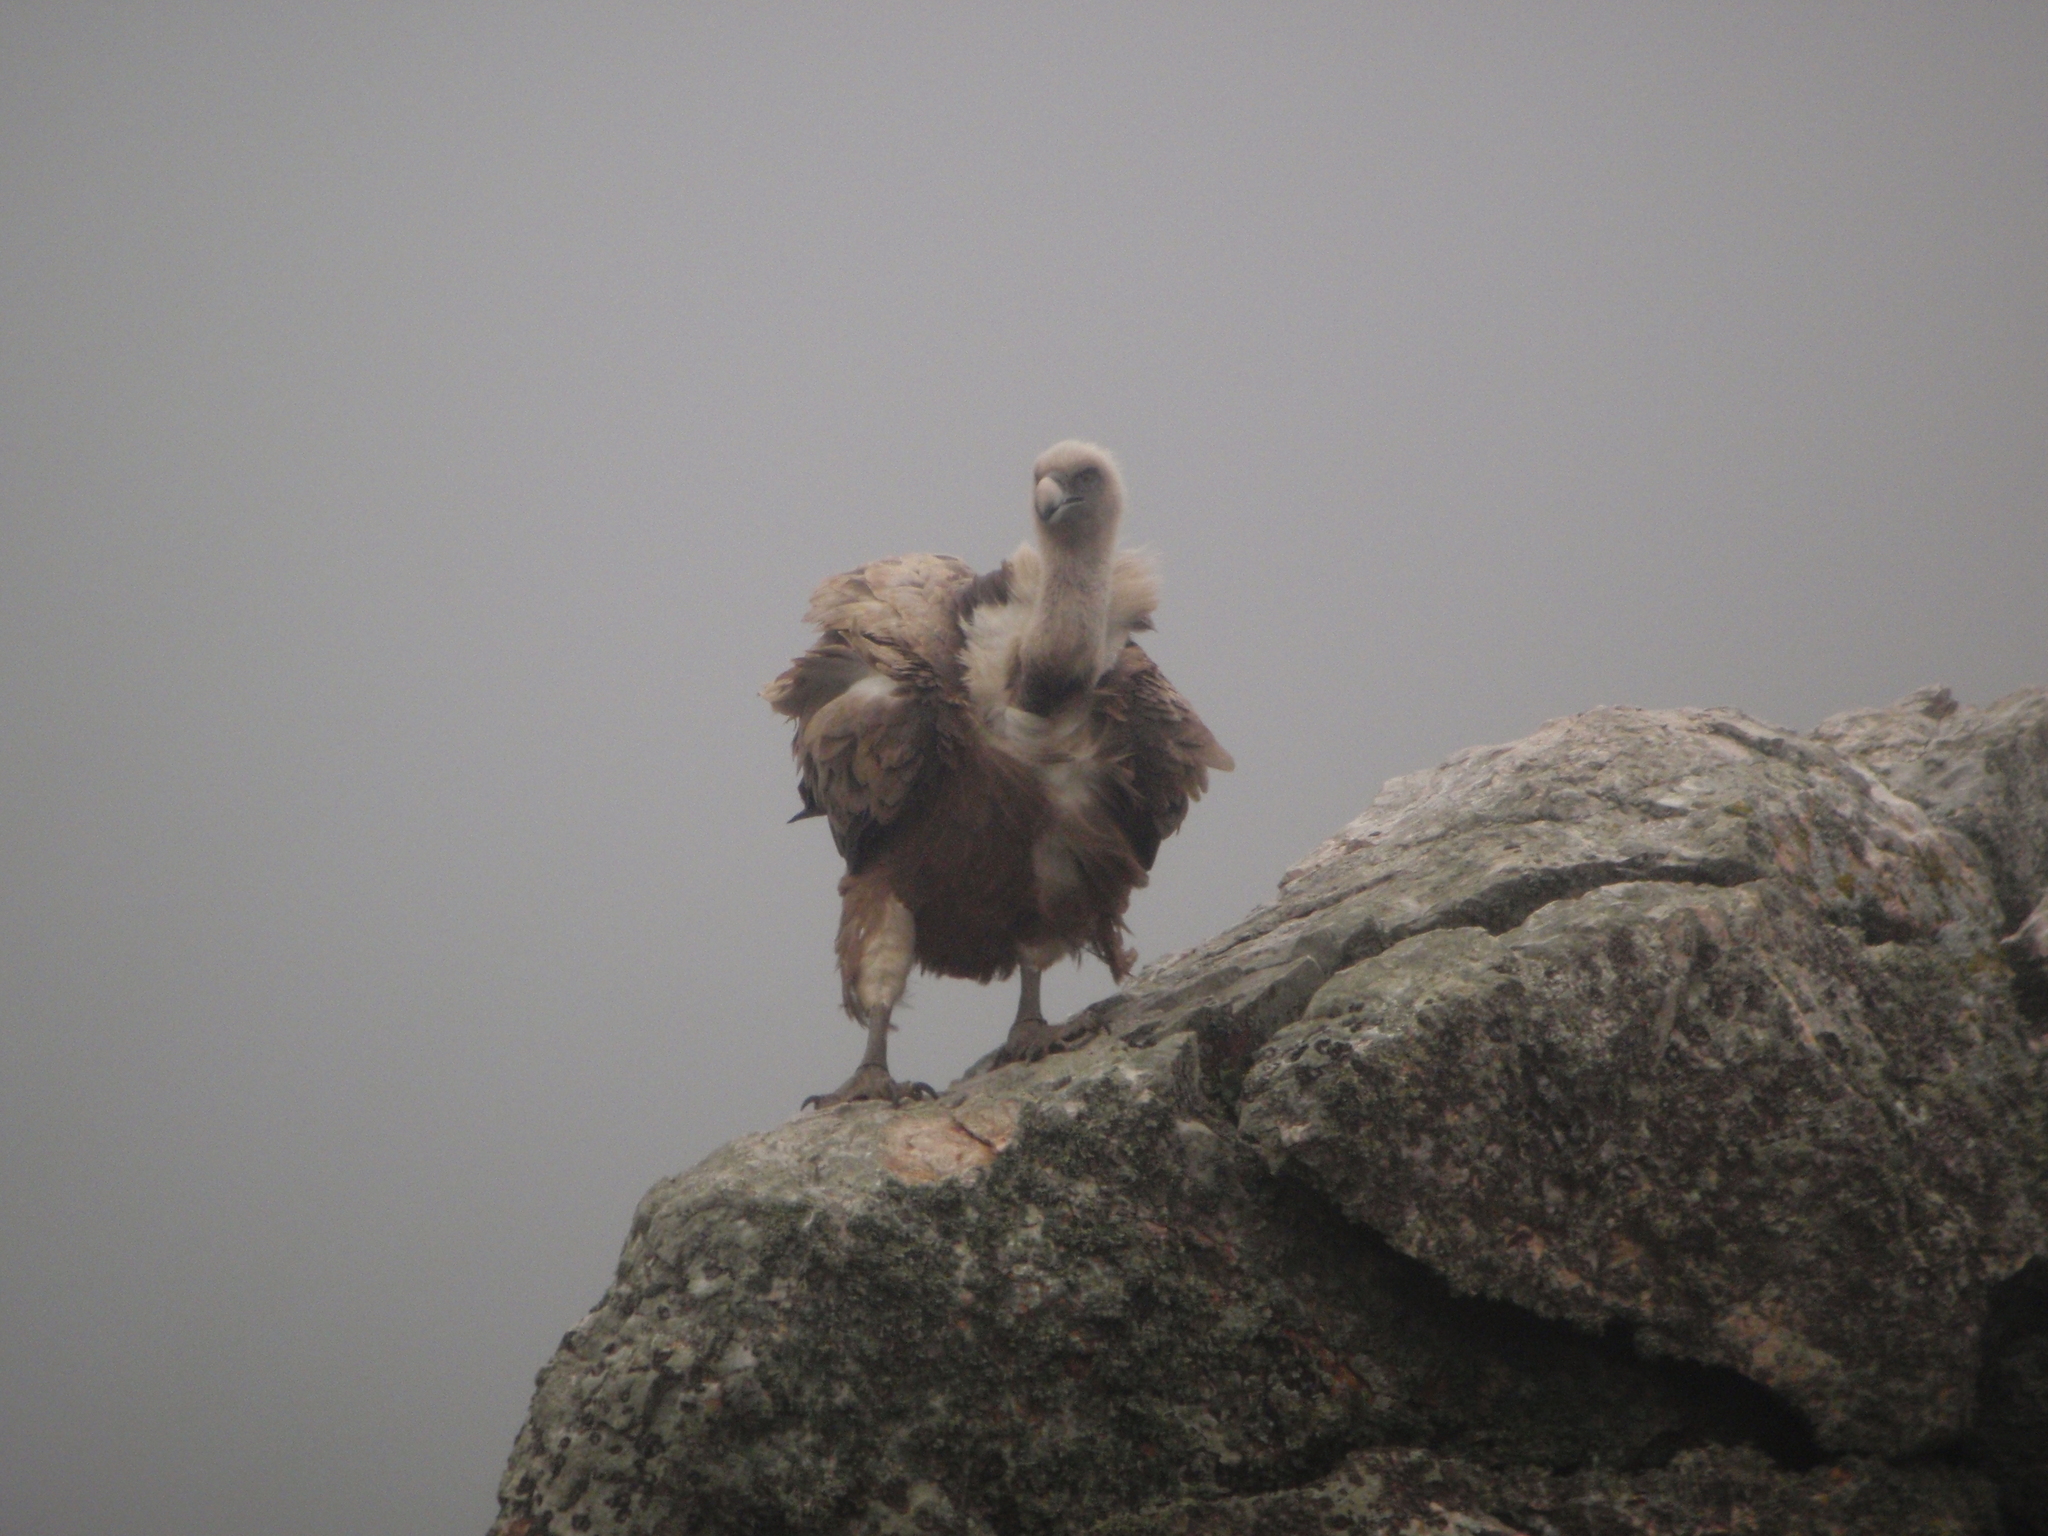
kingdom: Animalia
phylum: Chordata
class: Aves
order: Accipitriformes
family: Accipitridae
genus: Gyps
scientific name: Gyps fulvus
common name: Griffon vulture
